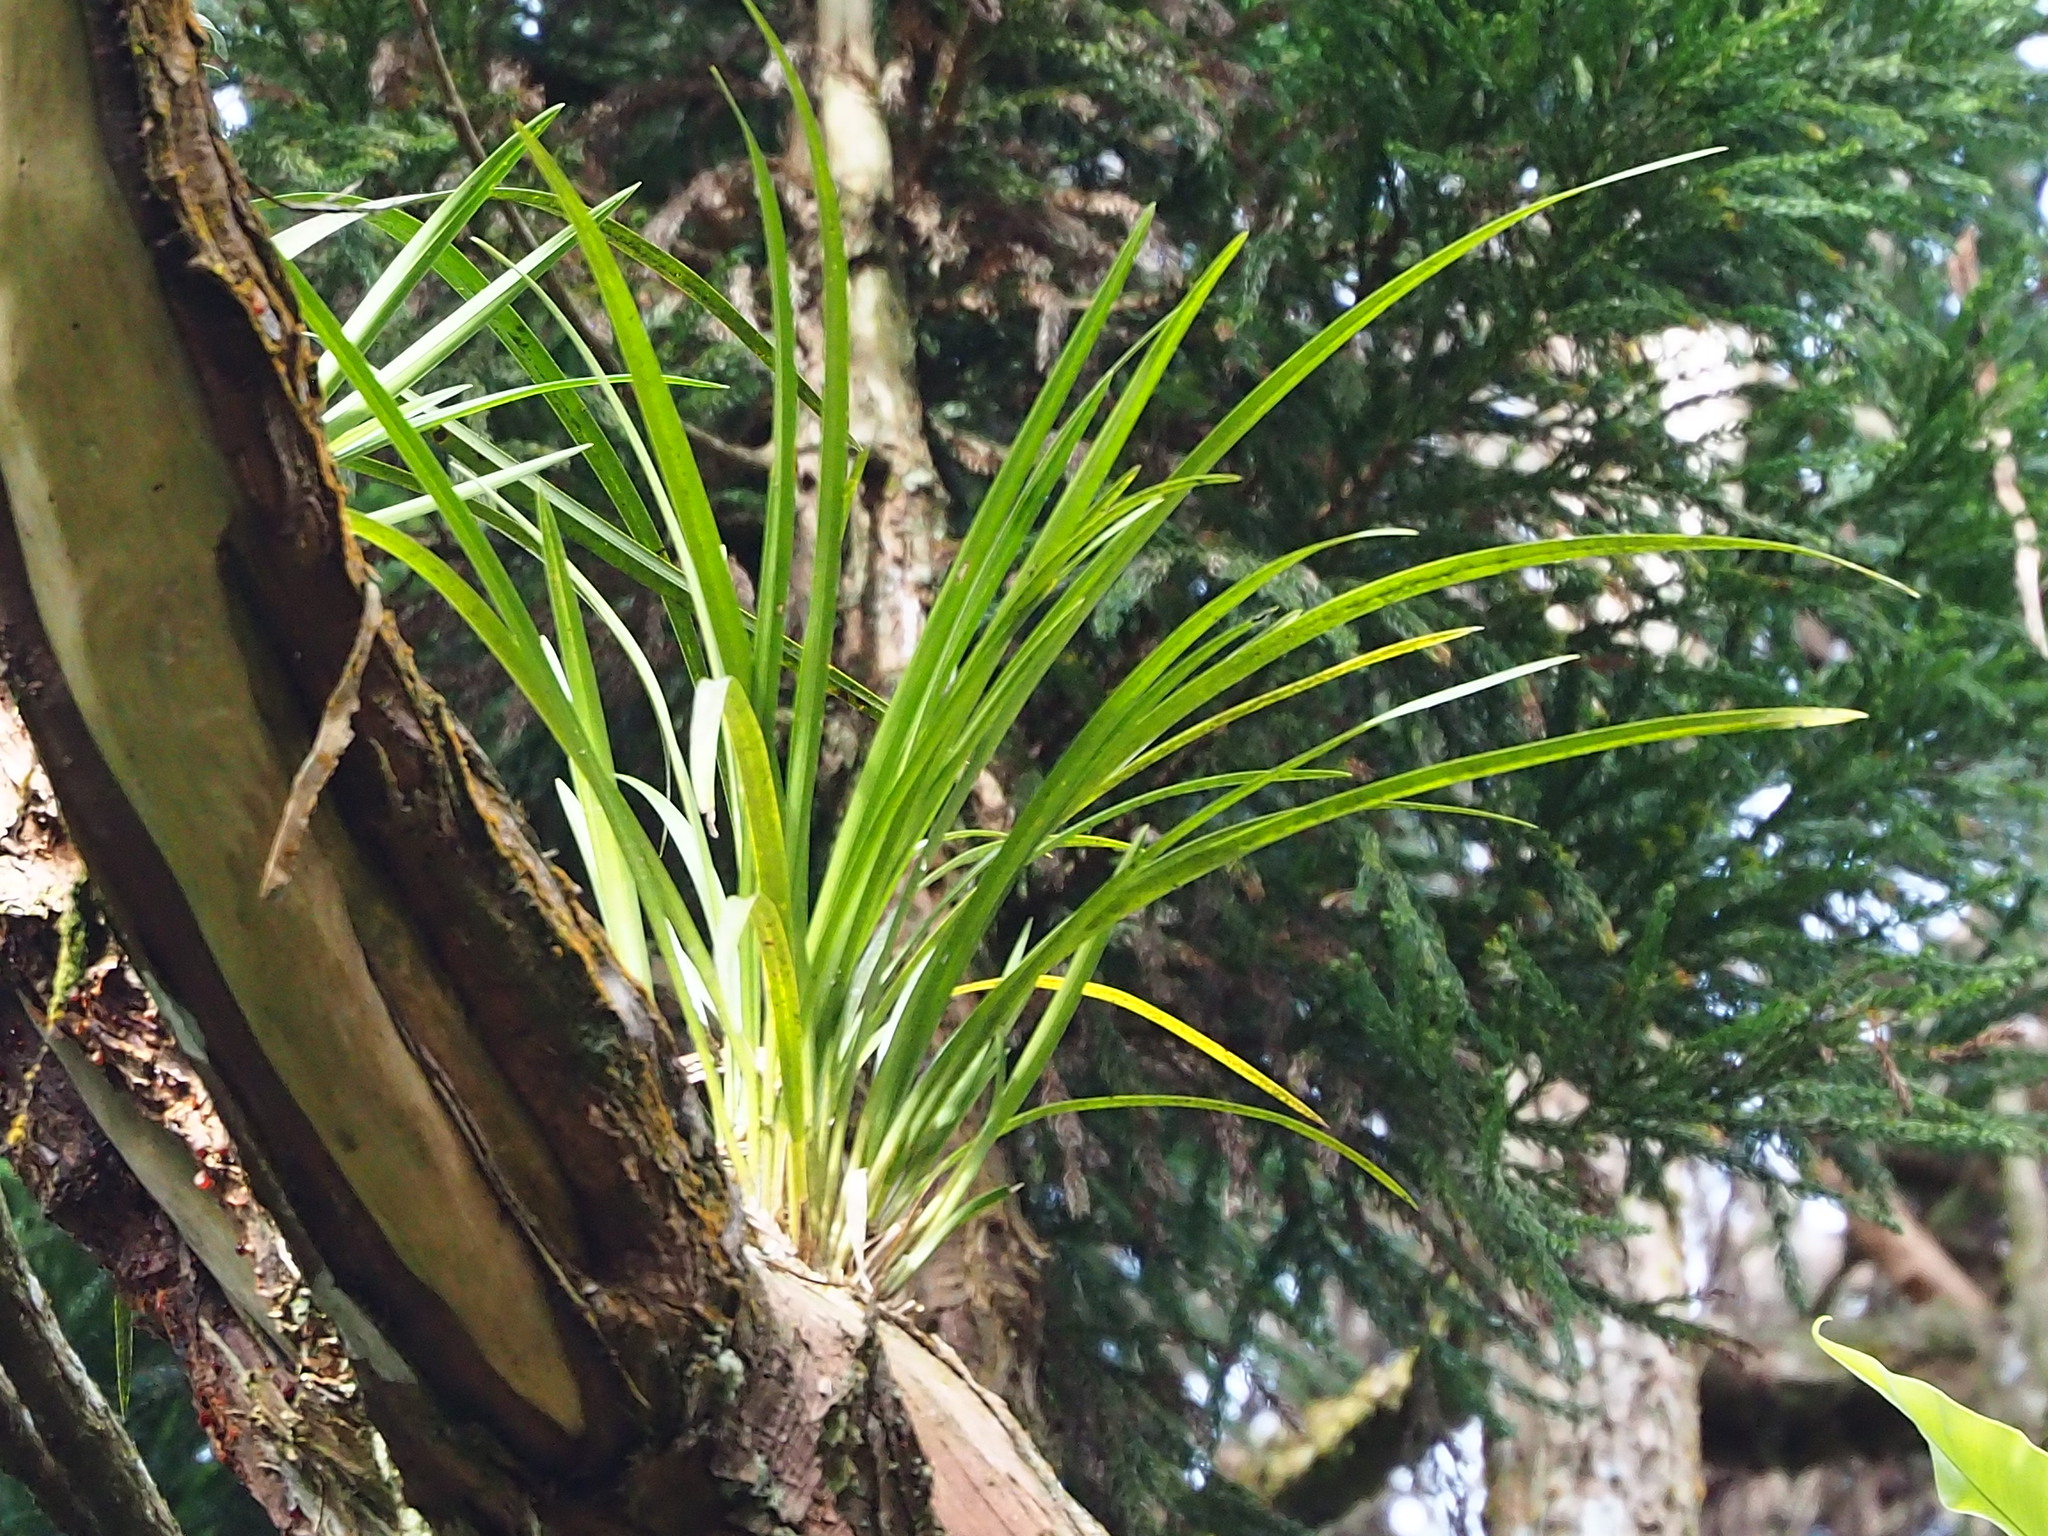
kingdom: Plantae
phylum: Tracheophyta
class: Liliopsida
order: Asparagales
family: Orchidaceae
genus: Cymbidium
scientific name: Cymbidium dayanum
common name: Orchid
